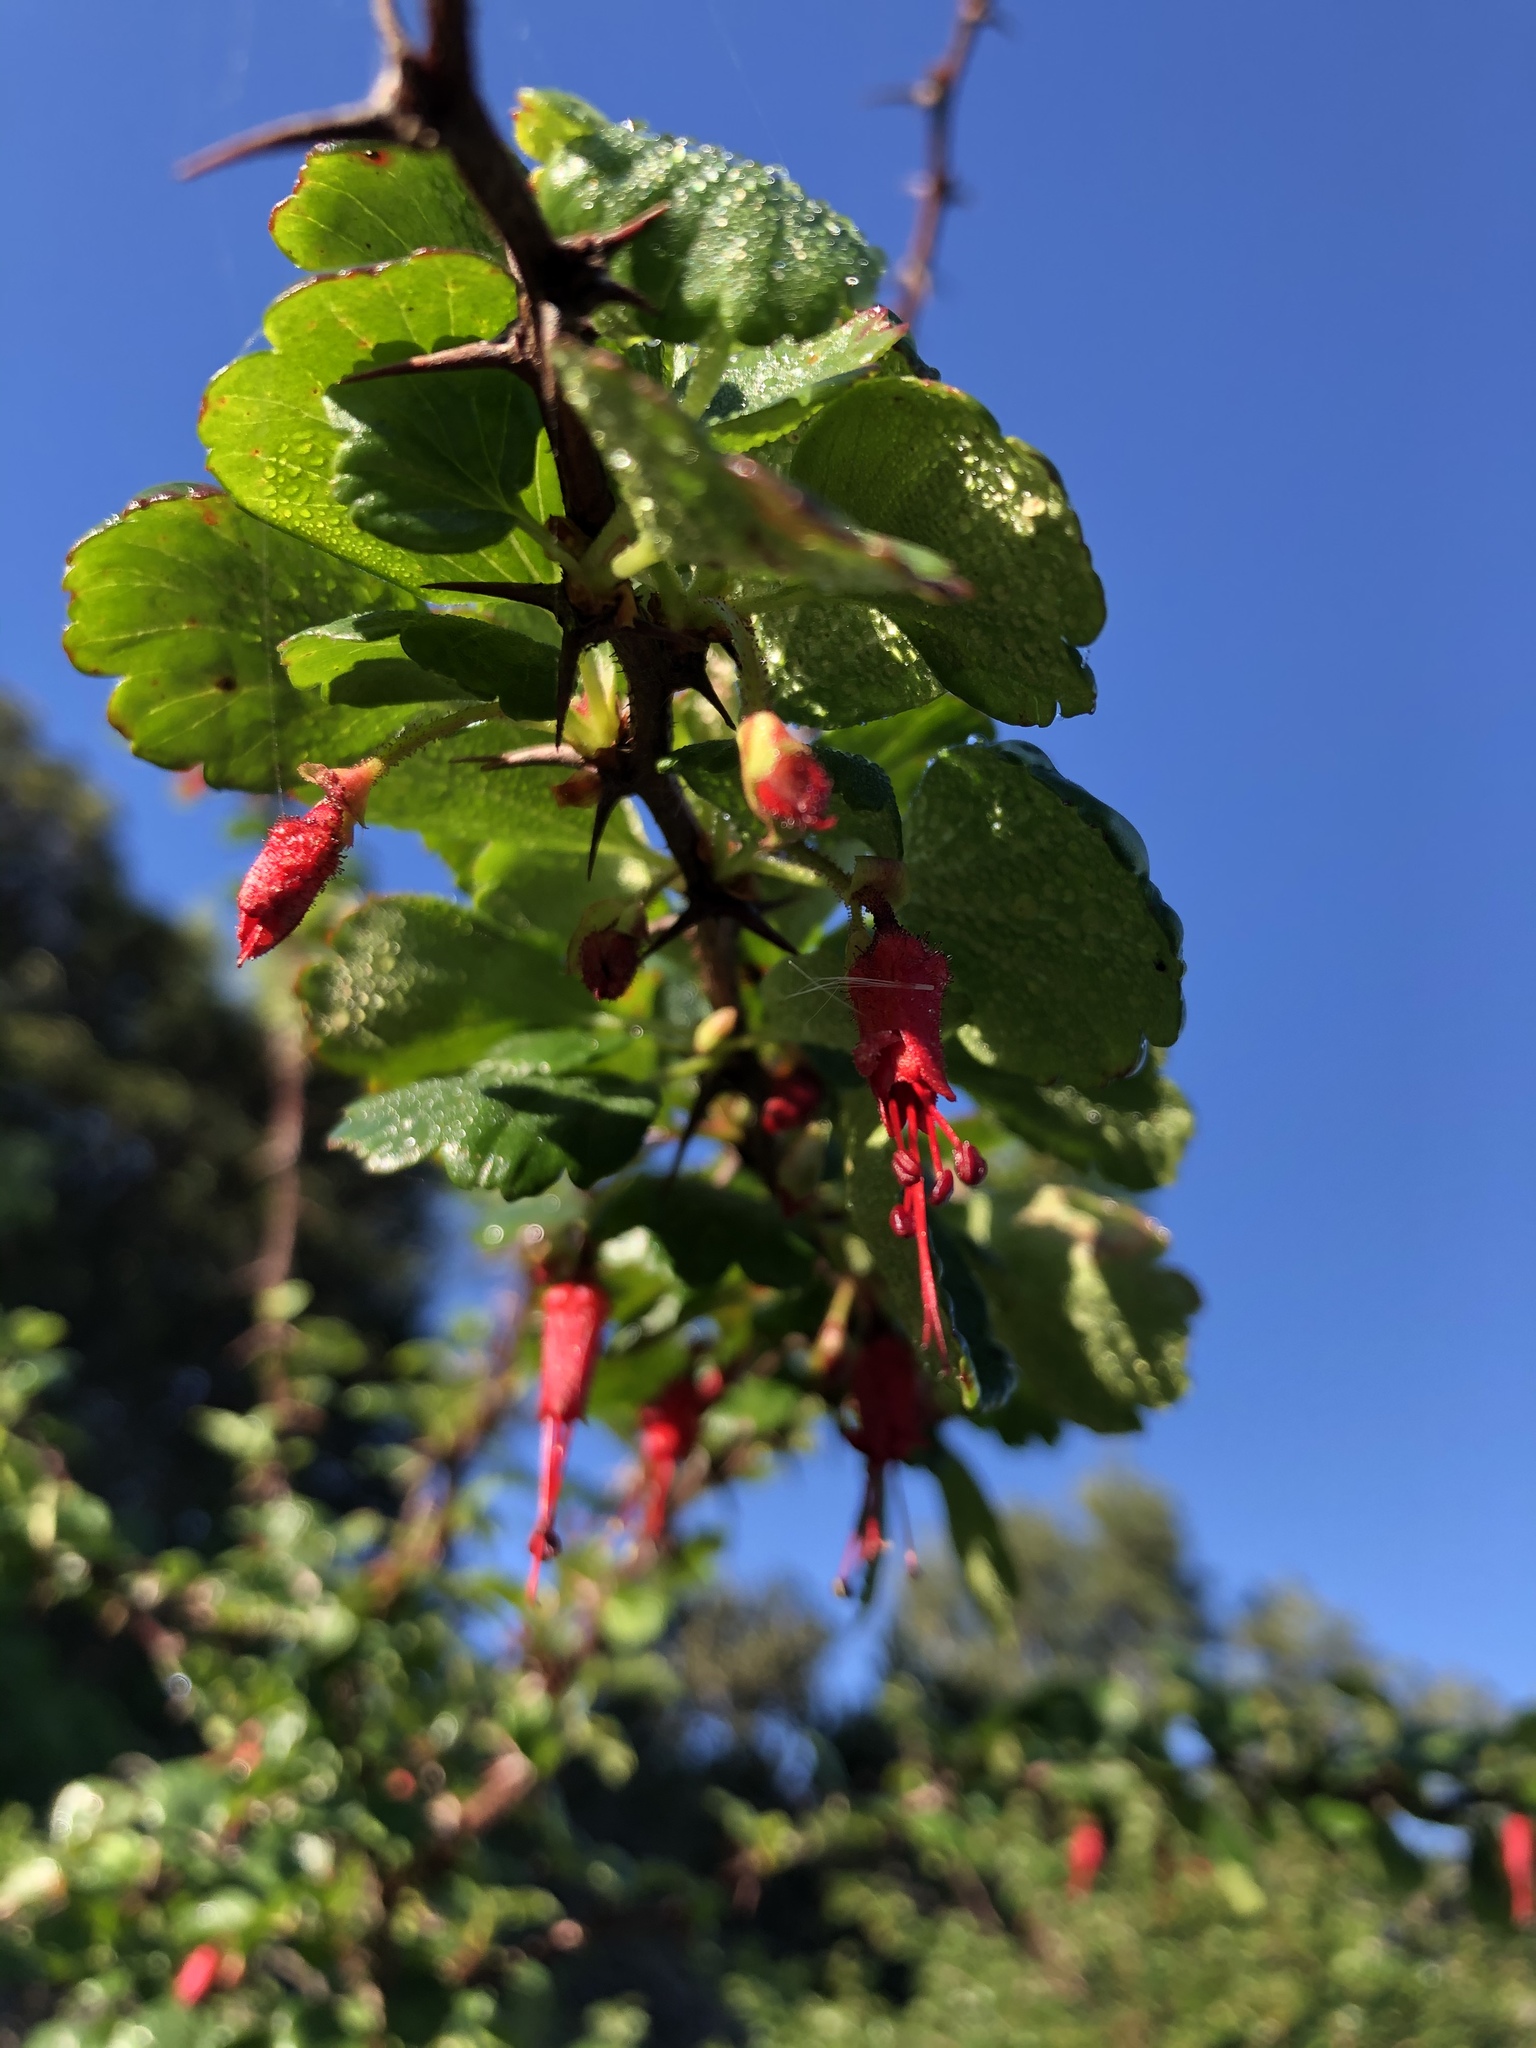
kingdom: Plantae
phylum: Tracheophyta
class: Magnoliopsida
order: Saxifragales
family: Grossulariaceae
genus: Ribes
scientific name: Ribes speciosum
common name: Fuchsia-flower gooseberry
